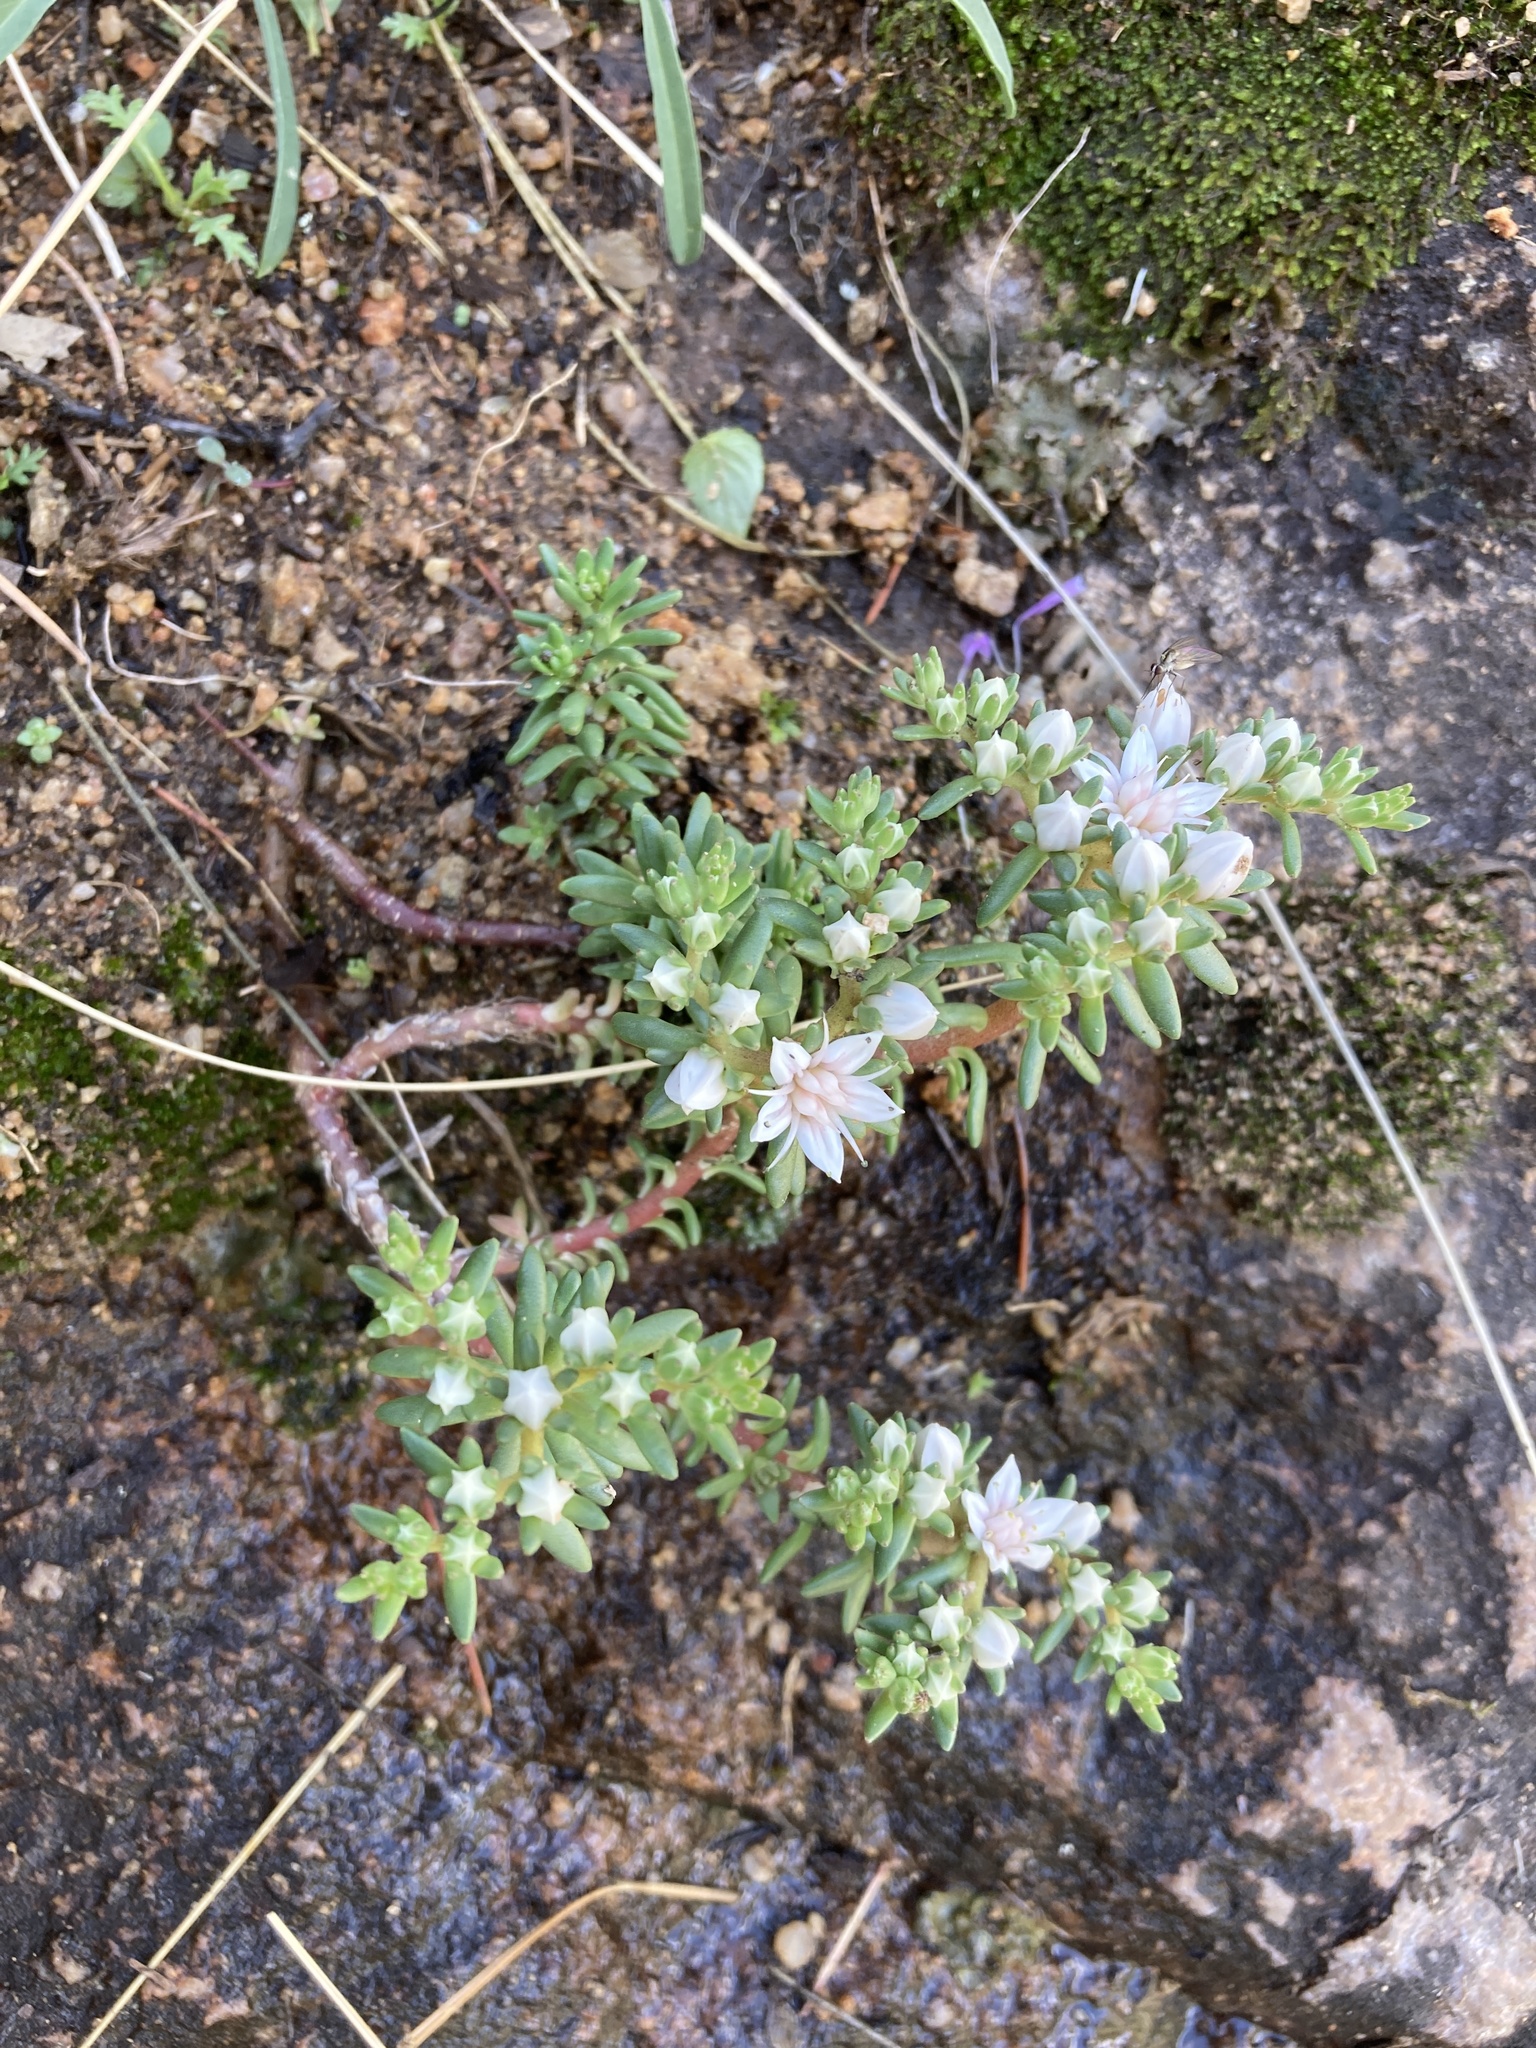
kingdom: Plantae
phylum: Tracheophyta
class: Magnoliopsida
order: Saxifragales
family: Crassulaceae
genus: Sedum
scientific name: Sedum stelliforme
